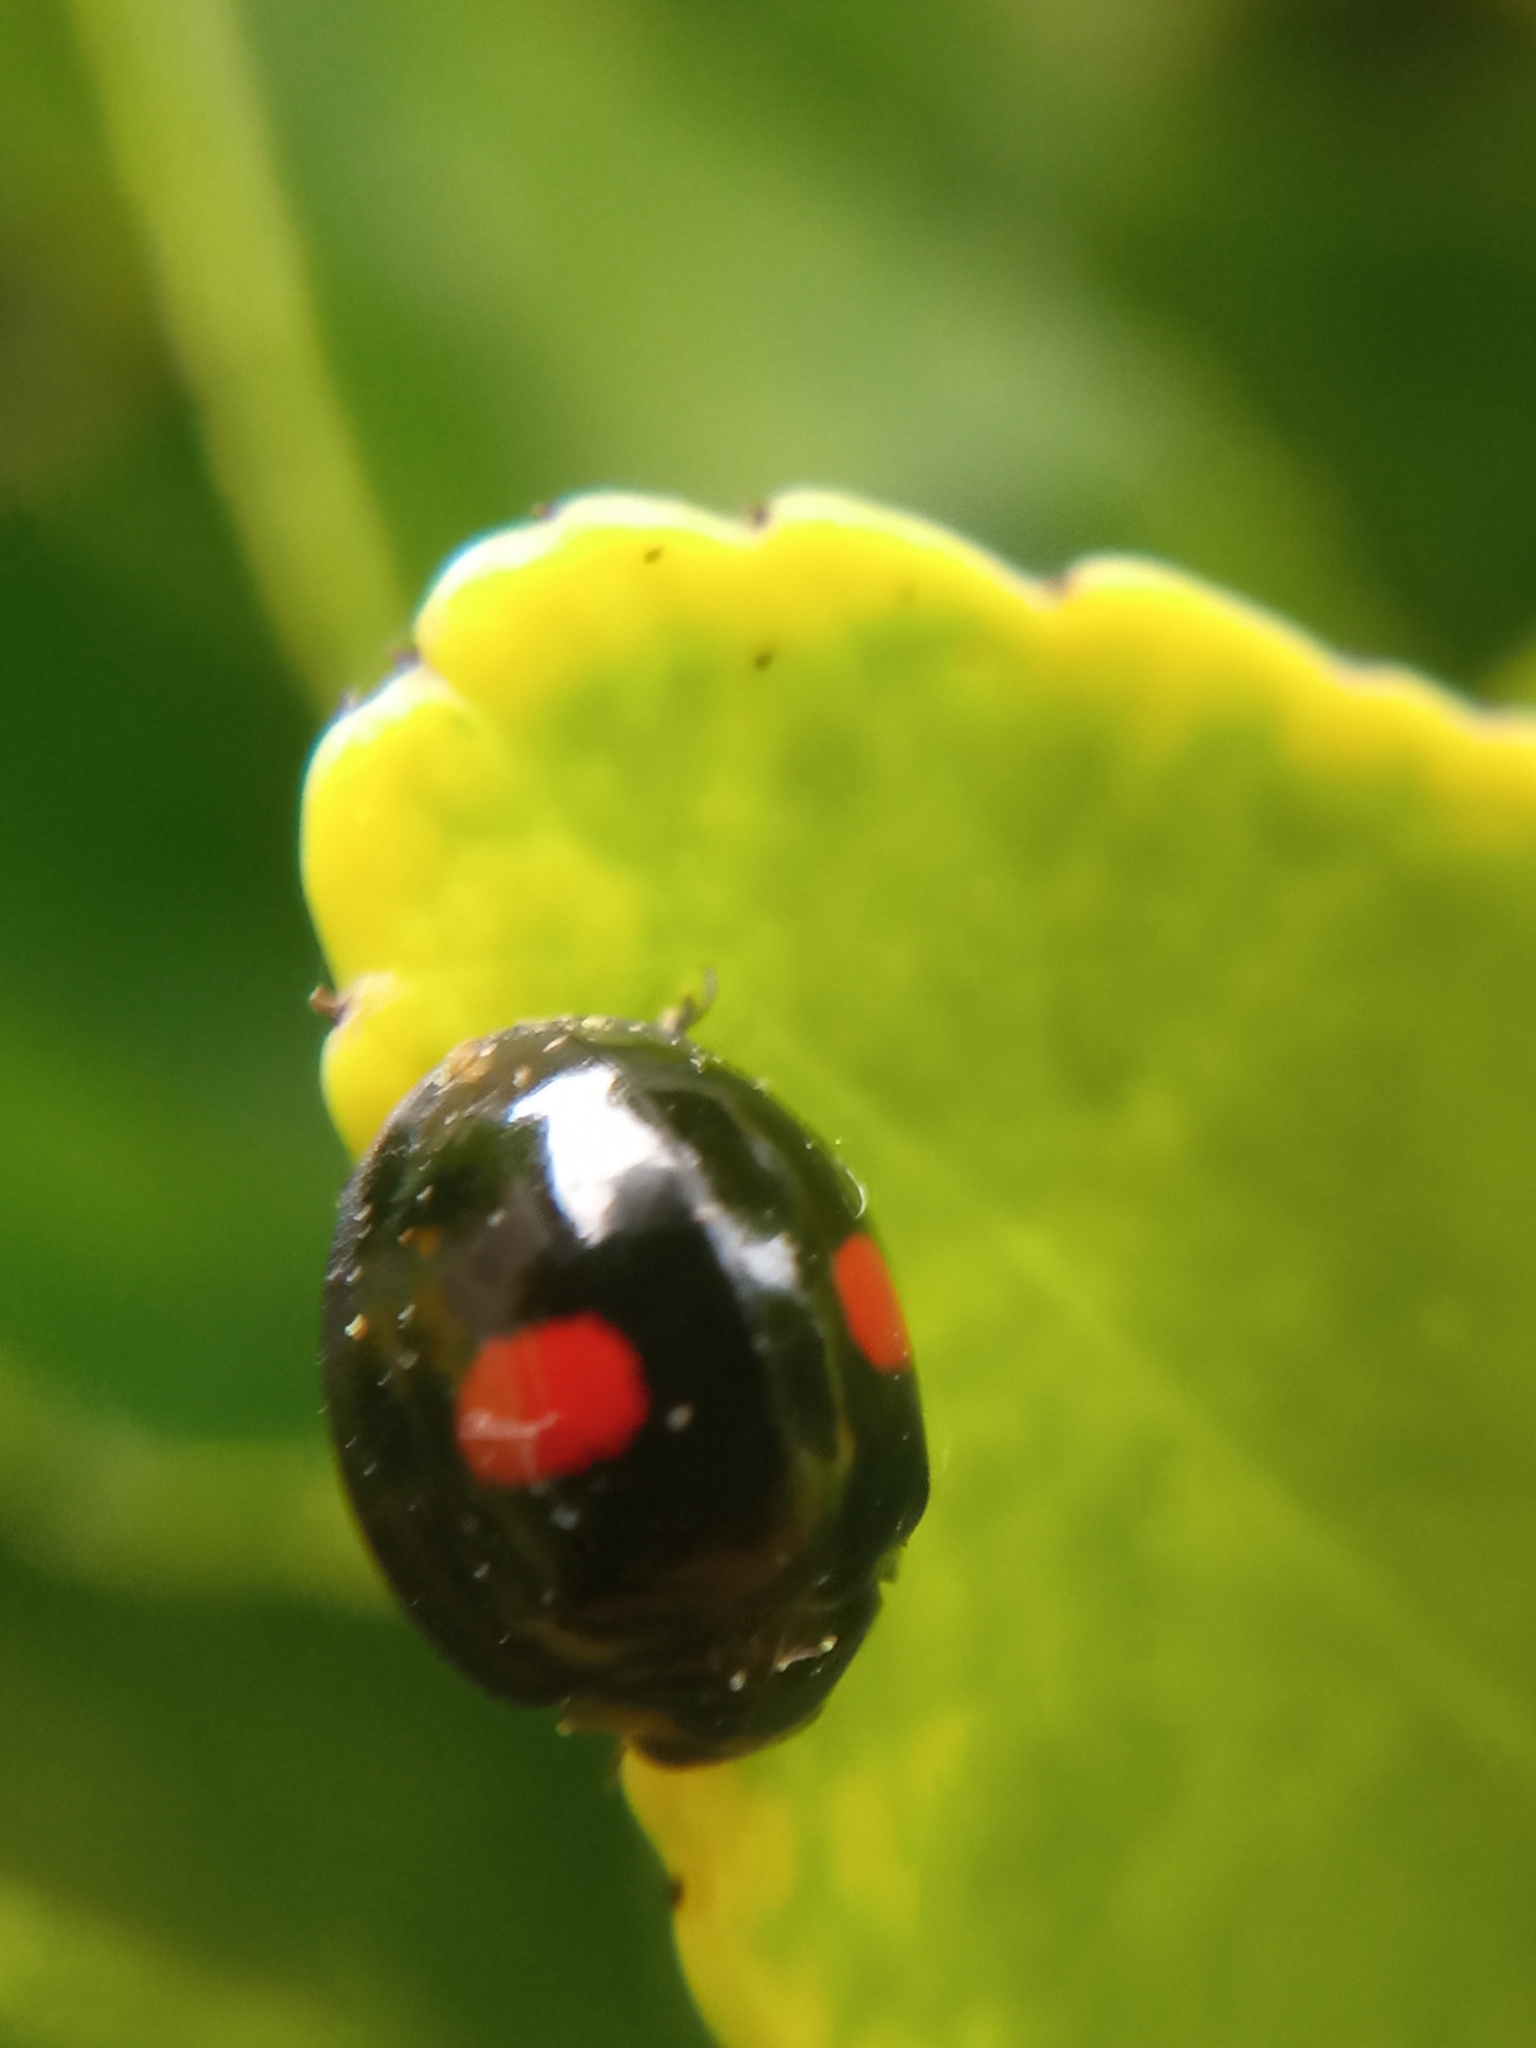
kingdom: Animalia
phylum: Arthropoda
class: Insecta
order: Coleoptera
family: Coccinellidae
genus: Chilocorus
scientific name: Chilocorus renipustulatus
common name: Kidney-spot ladybird
